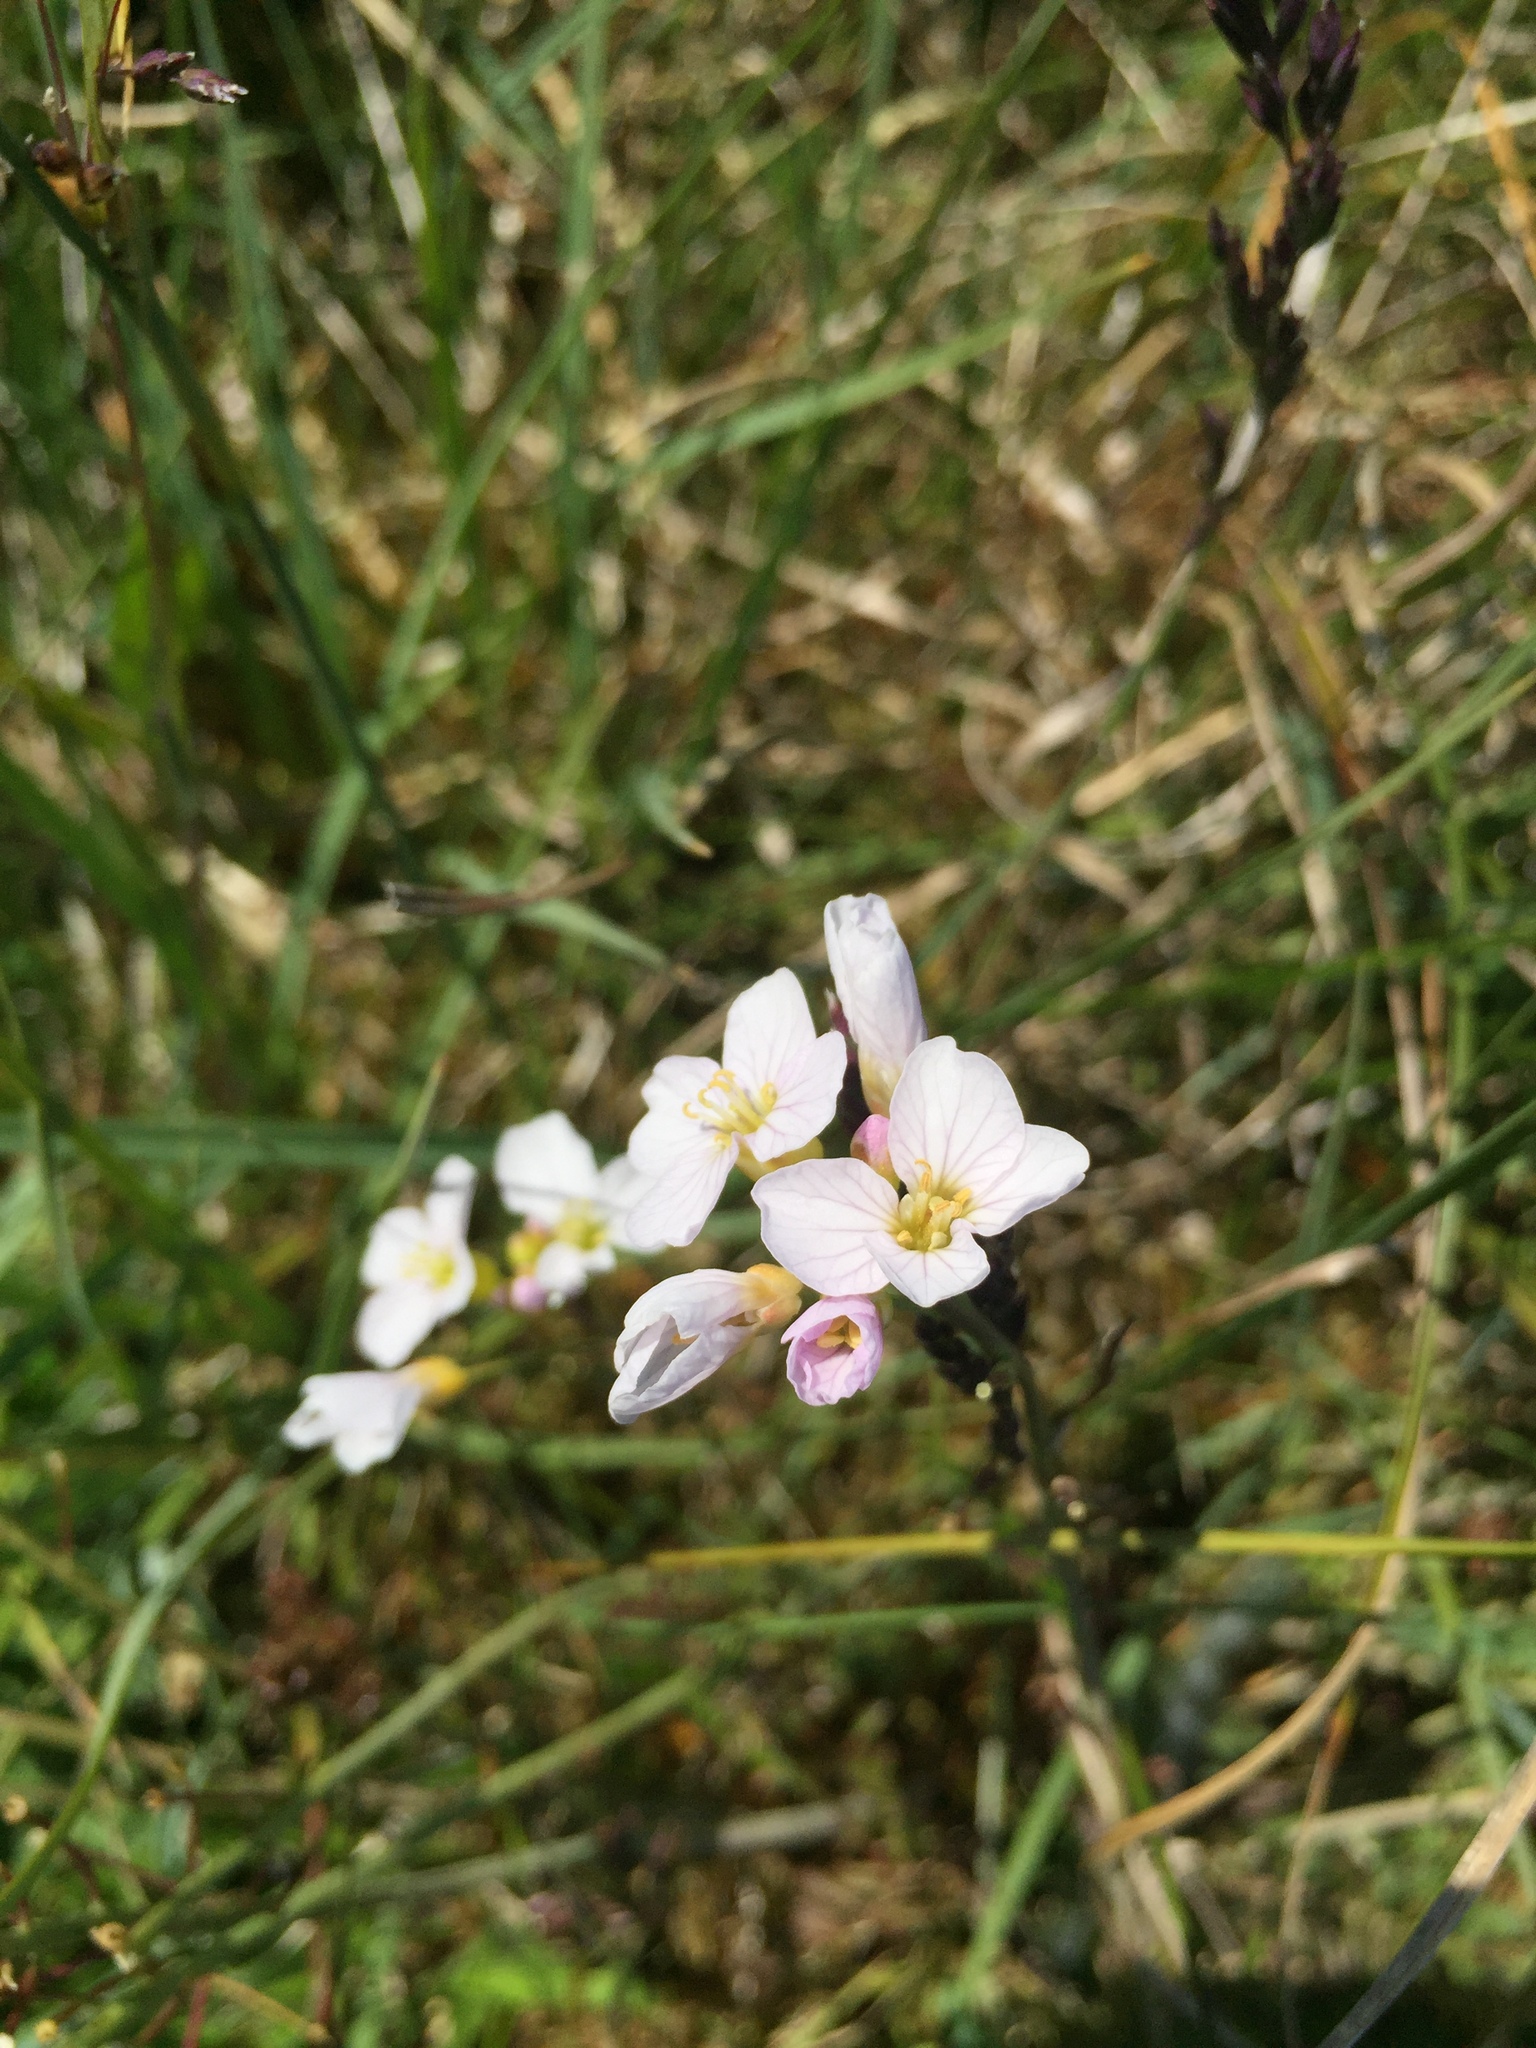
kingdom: Plantae
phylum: Tracheophyta
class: Magnoliopsida
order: Brassicales
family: Brassicaceae
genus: Cardamine
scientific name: Cardamine pratensis
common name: Cuckoo flower
